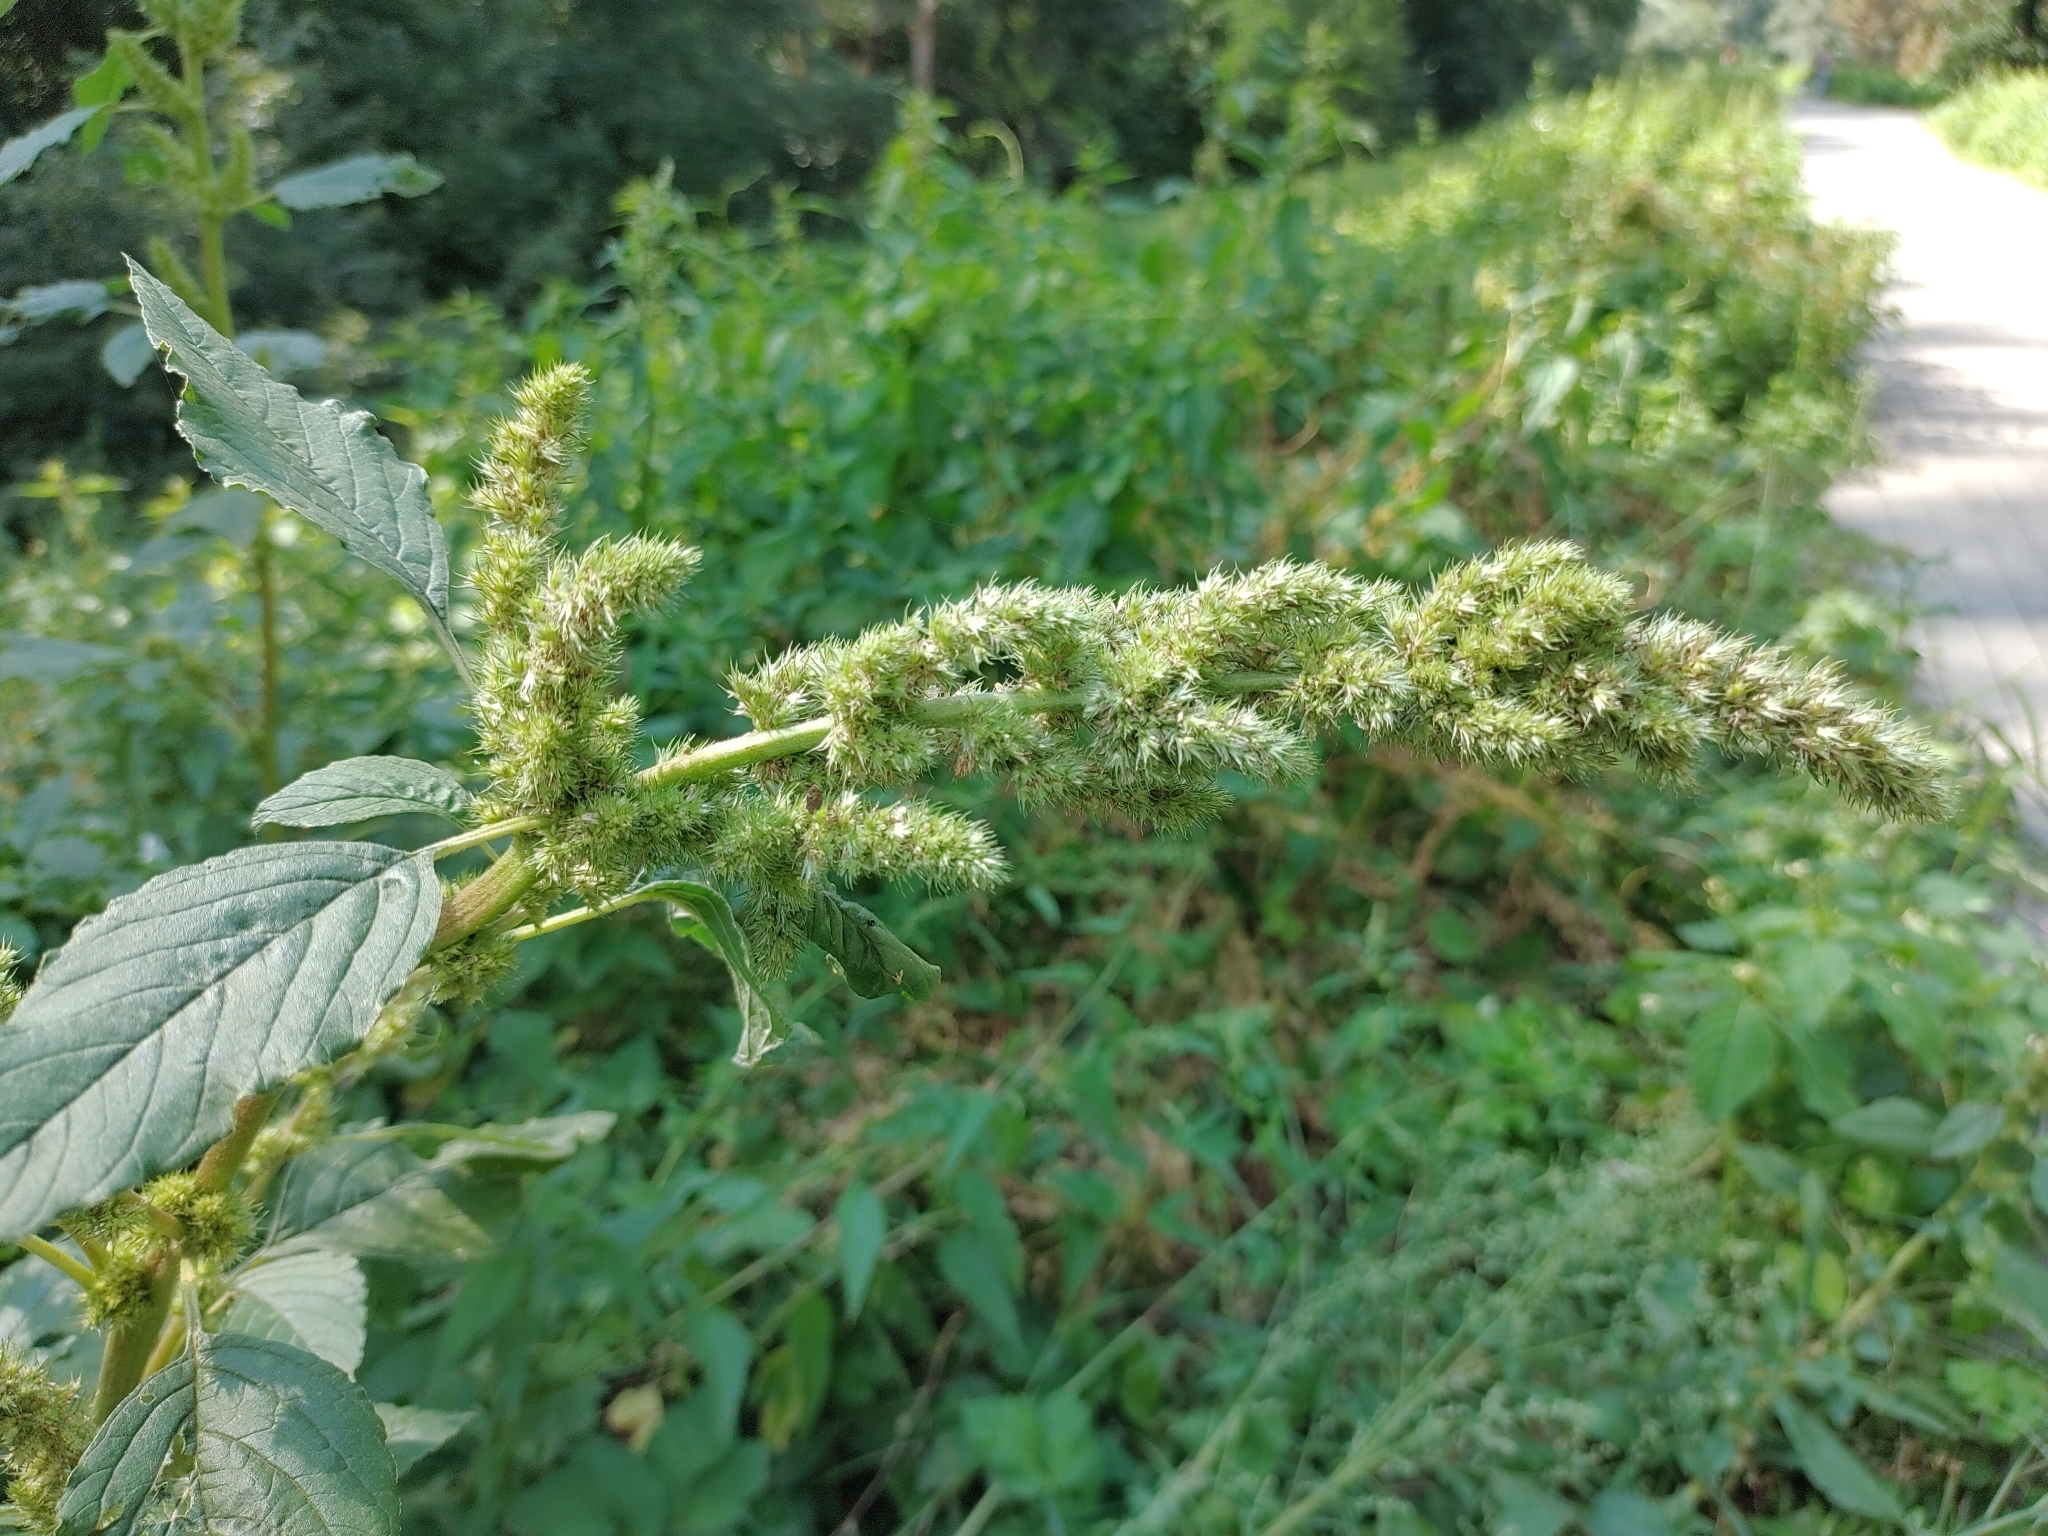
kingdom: Plantae
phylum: Tracheophyta
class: Magnoliopsida
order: Caryophyllales
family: Amaranthaceae
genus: Amaranthus
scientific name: Amaranthus retroflexus
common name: Redroot amaranth
